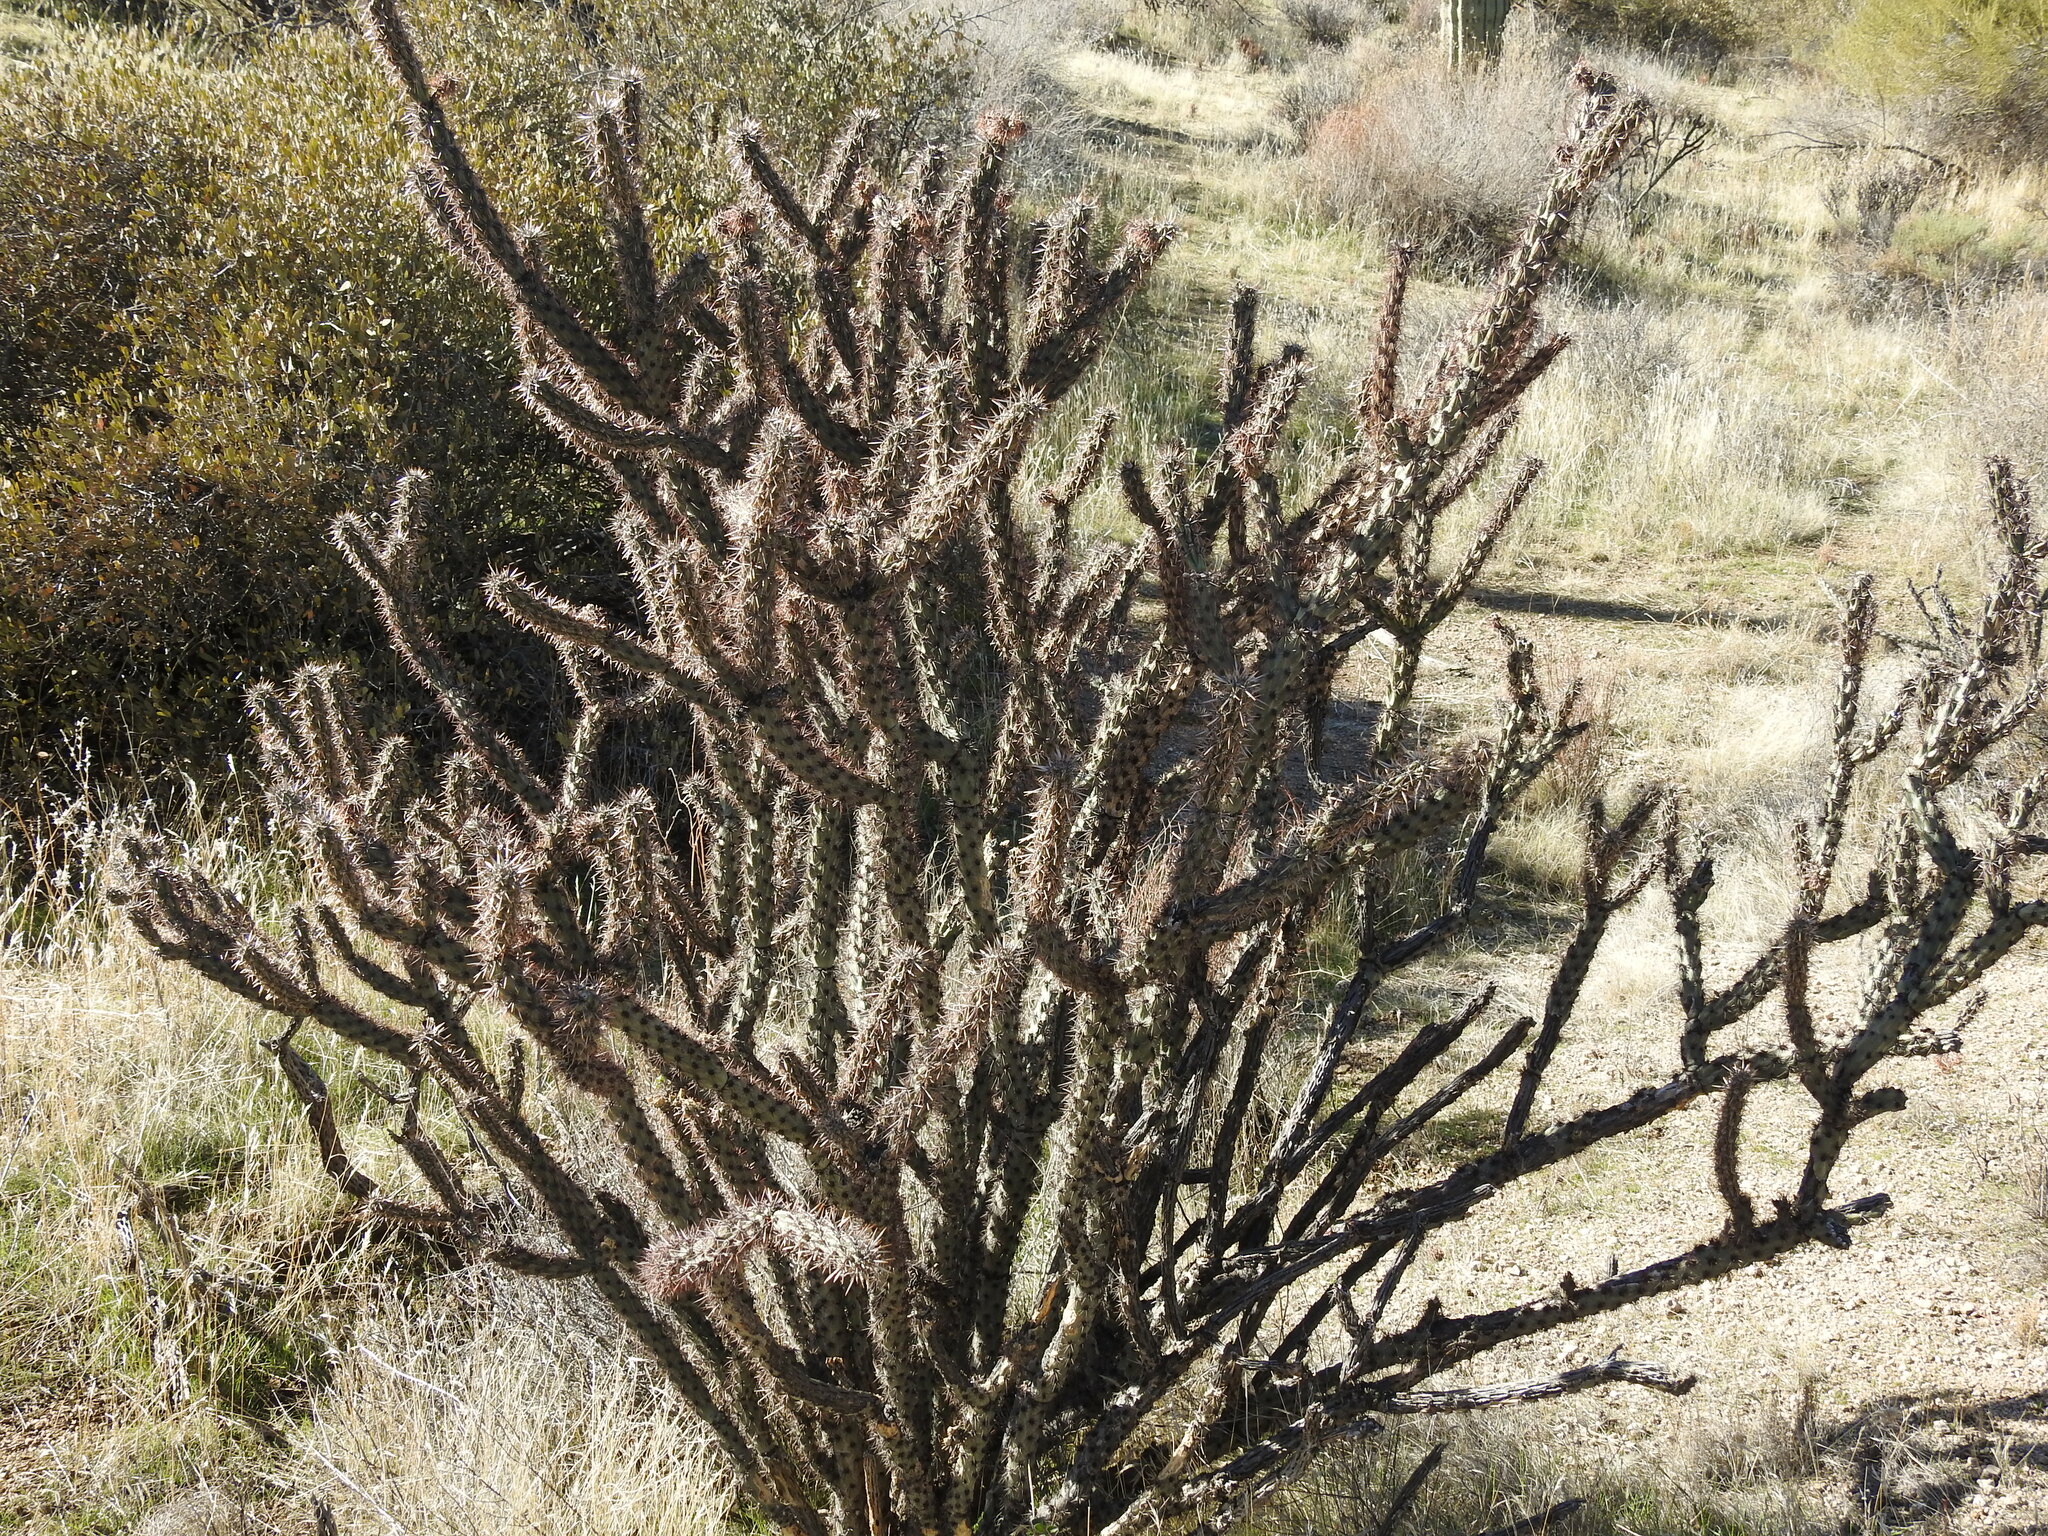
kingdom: Plantae
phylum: Tracheophyta
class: Magnoliopsida
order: Caryophyllales
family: Cactaceae
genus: Cylindropuntia
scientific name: Cylindropuntia acanthocarpa
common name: Buckhorn cholla
